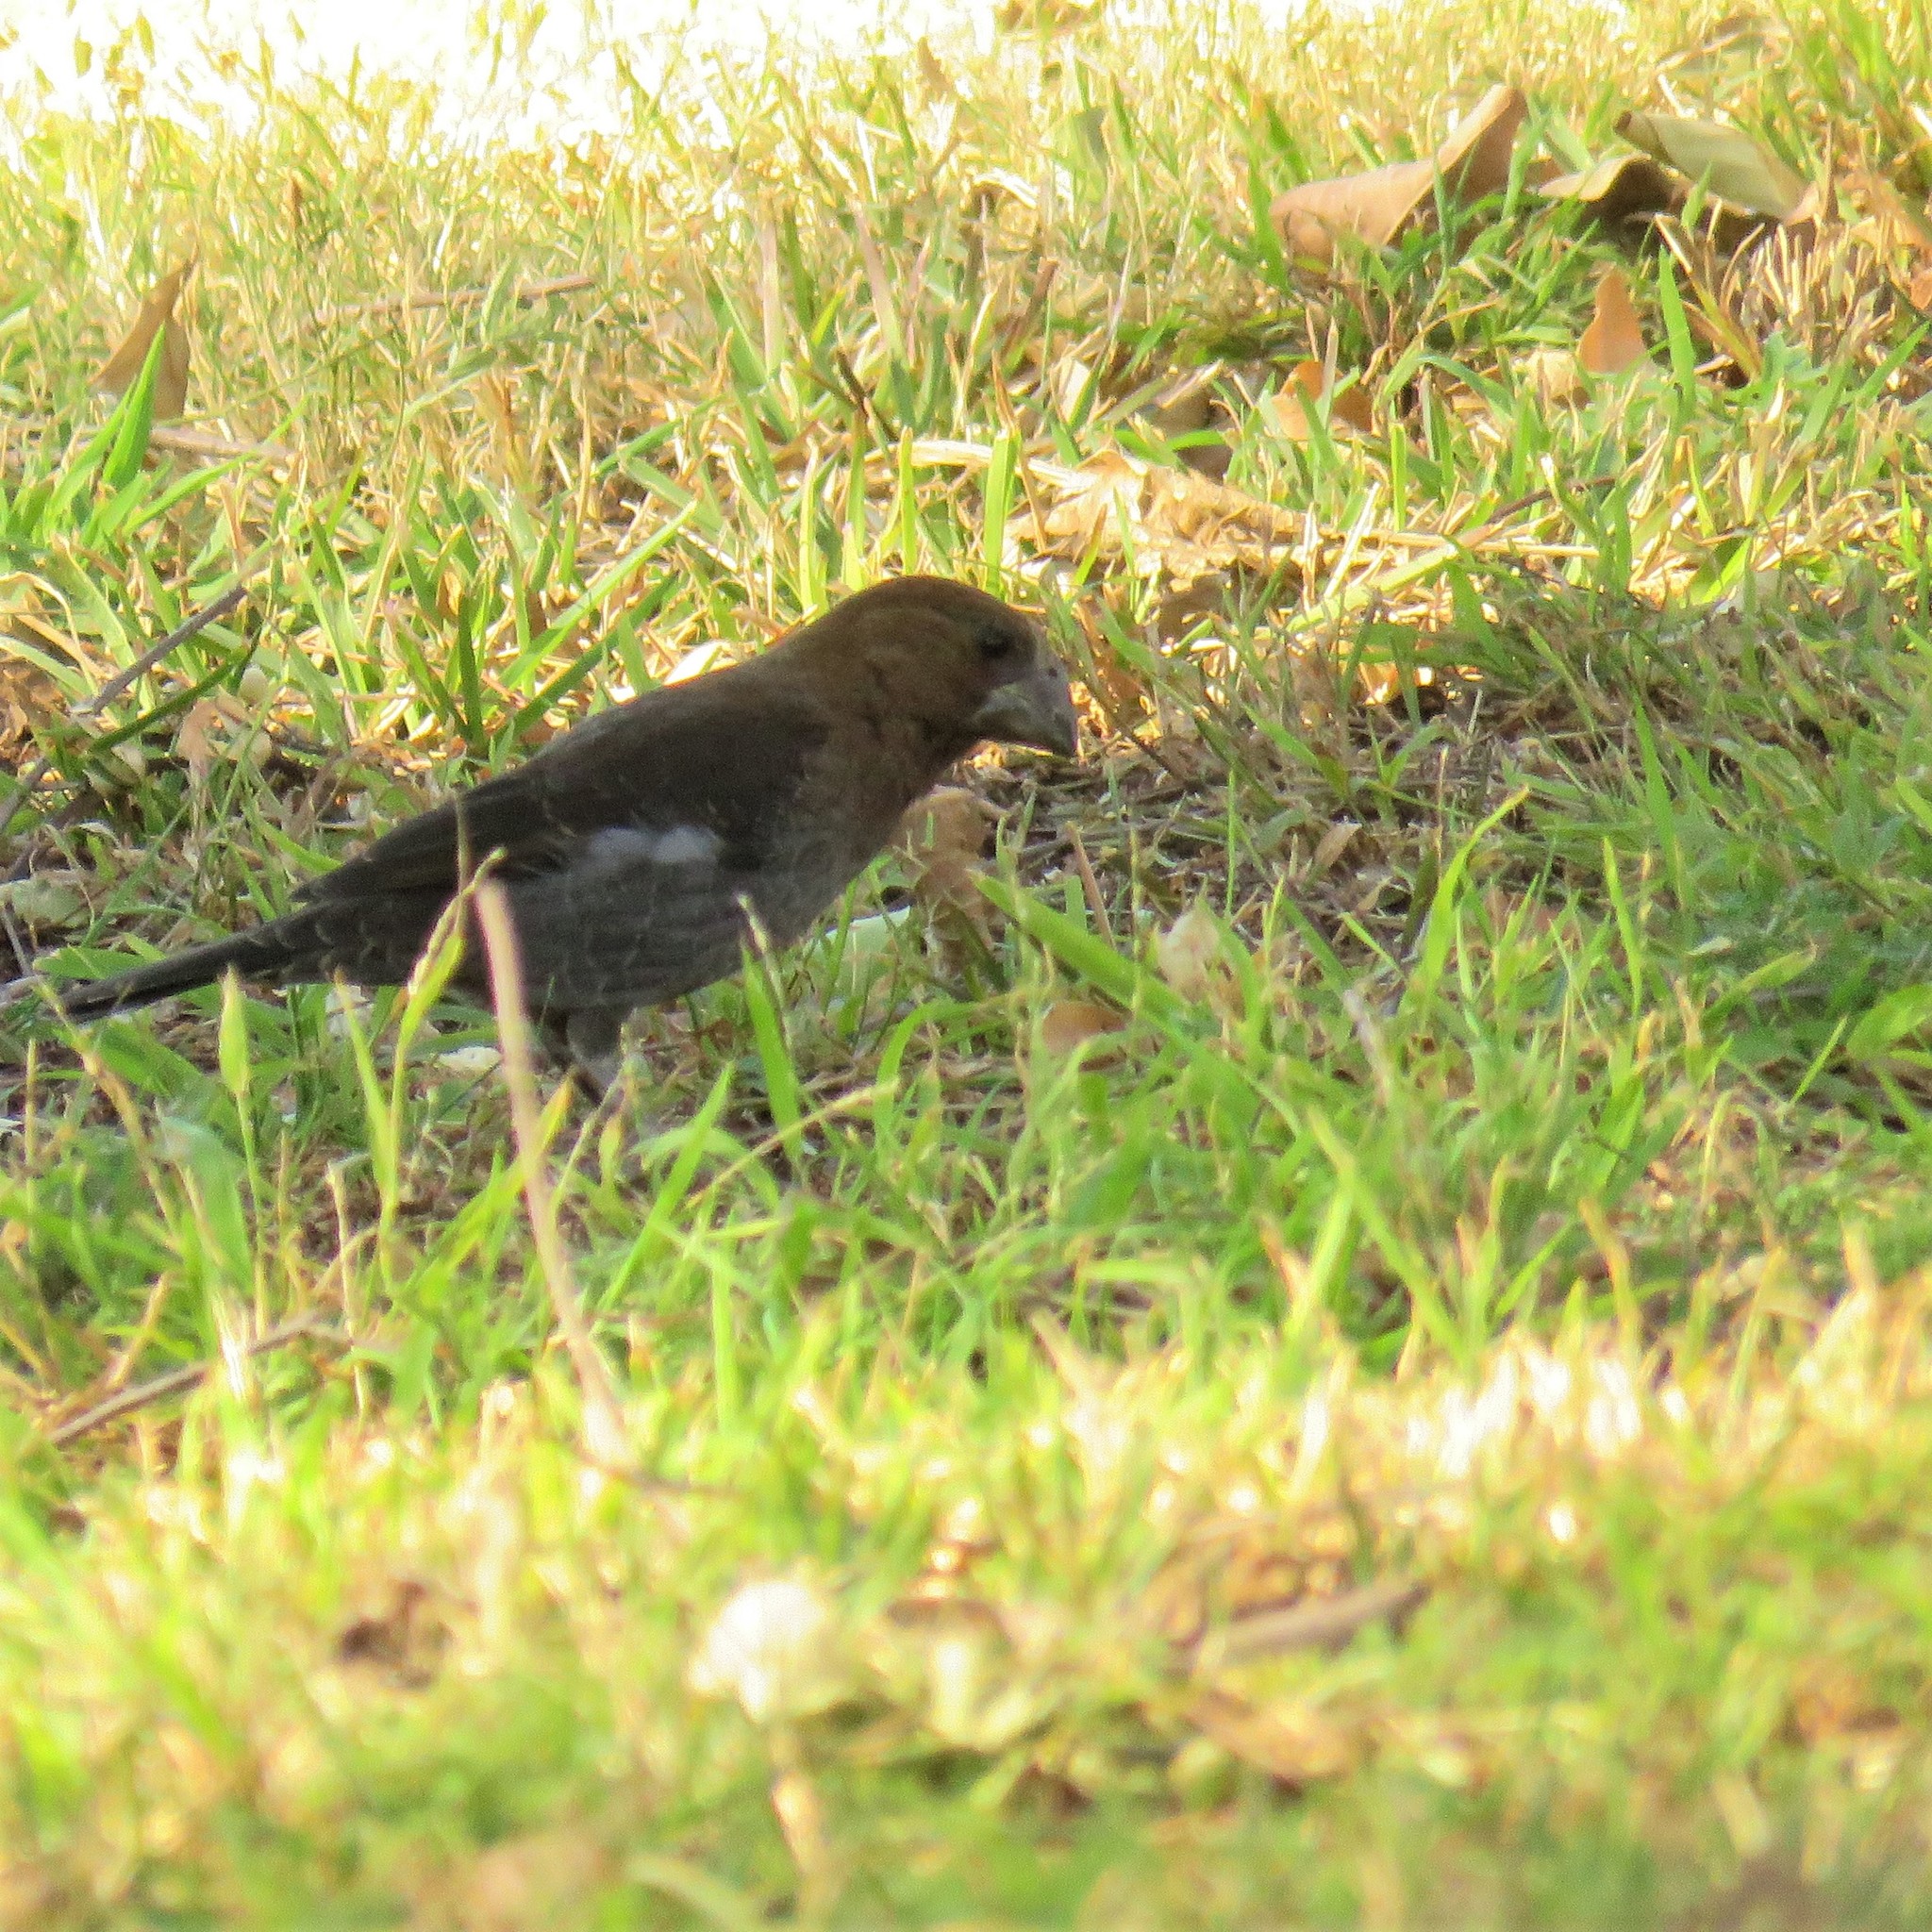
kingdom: Animalia
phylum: Chordata
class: Aves
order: Passeriformes
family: Ploceidae
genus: Amblyospiza
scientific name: Amblyospiza albifrons
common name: Thick-billed weaver
